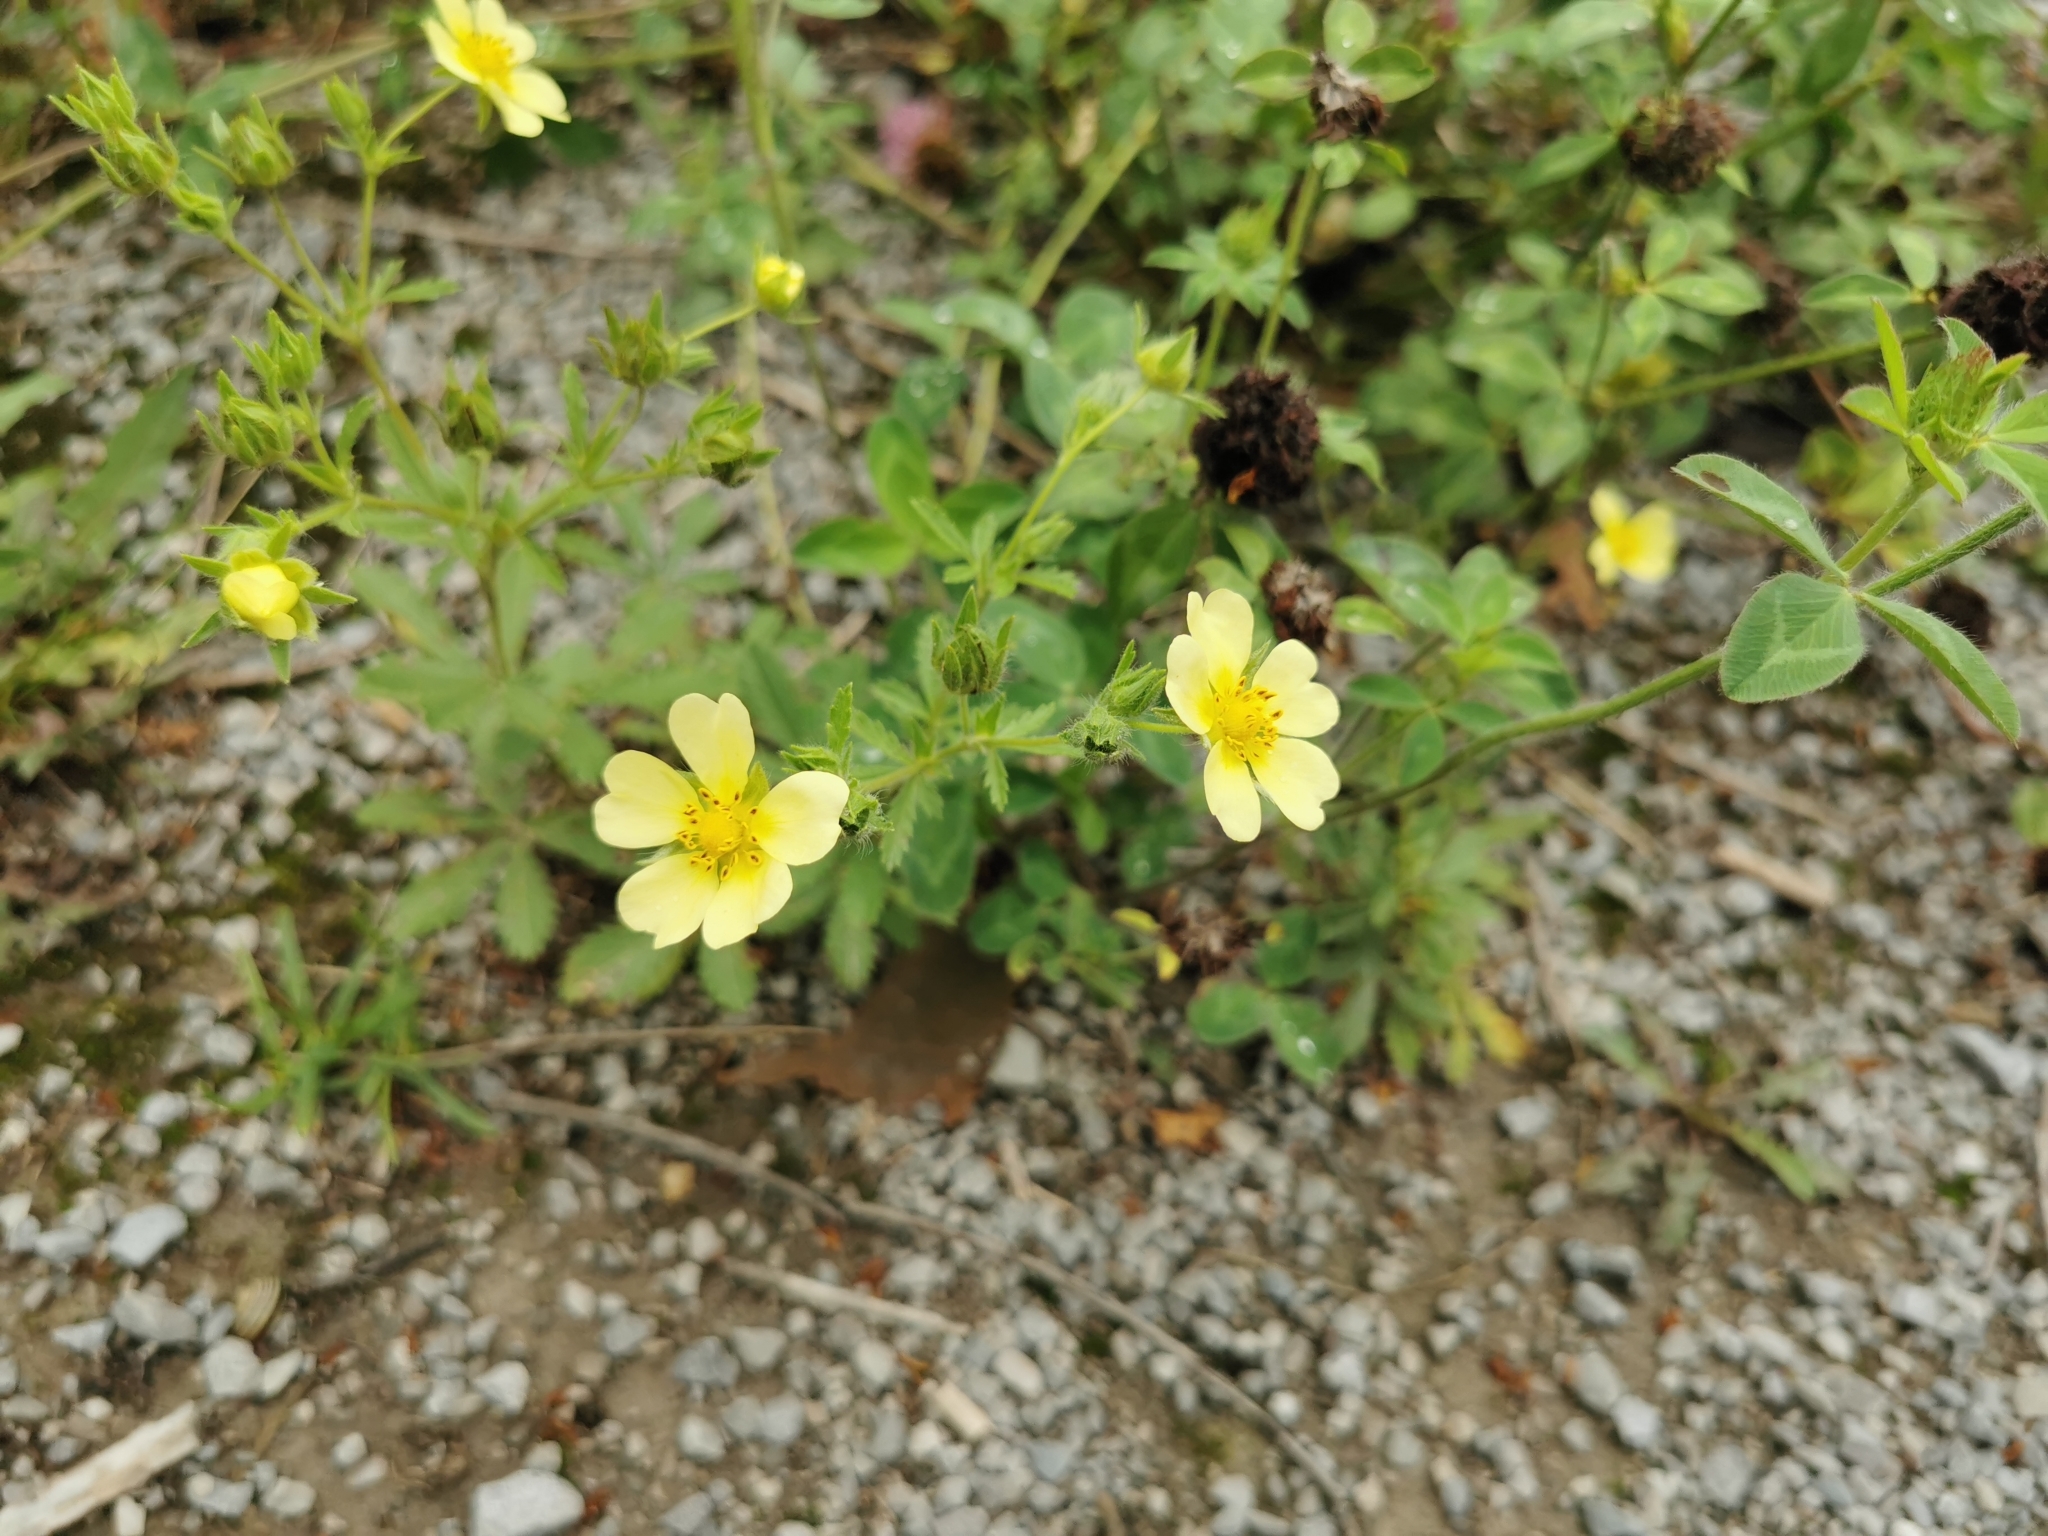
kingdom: Plantae
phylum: Tracheophyta
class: Magnoliopsida
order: Rosales
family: Rosaceae
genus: Potentilla
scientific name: Potentilla recta
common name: Sulphur cinquefoil
